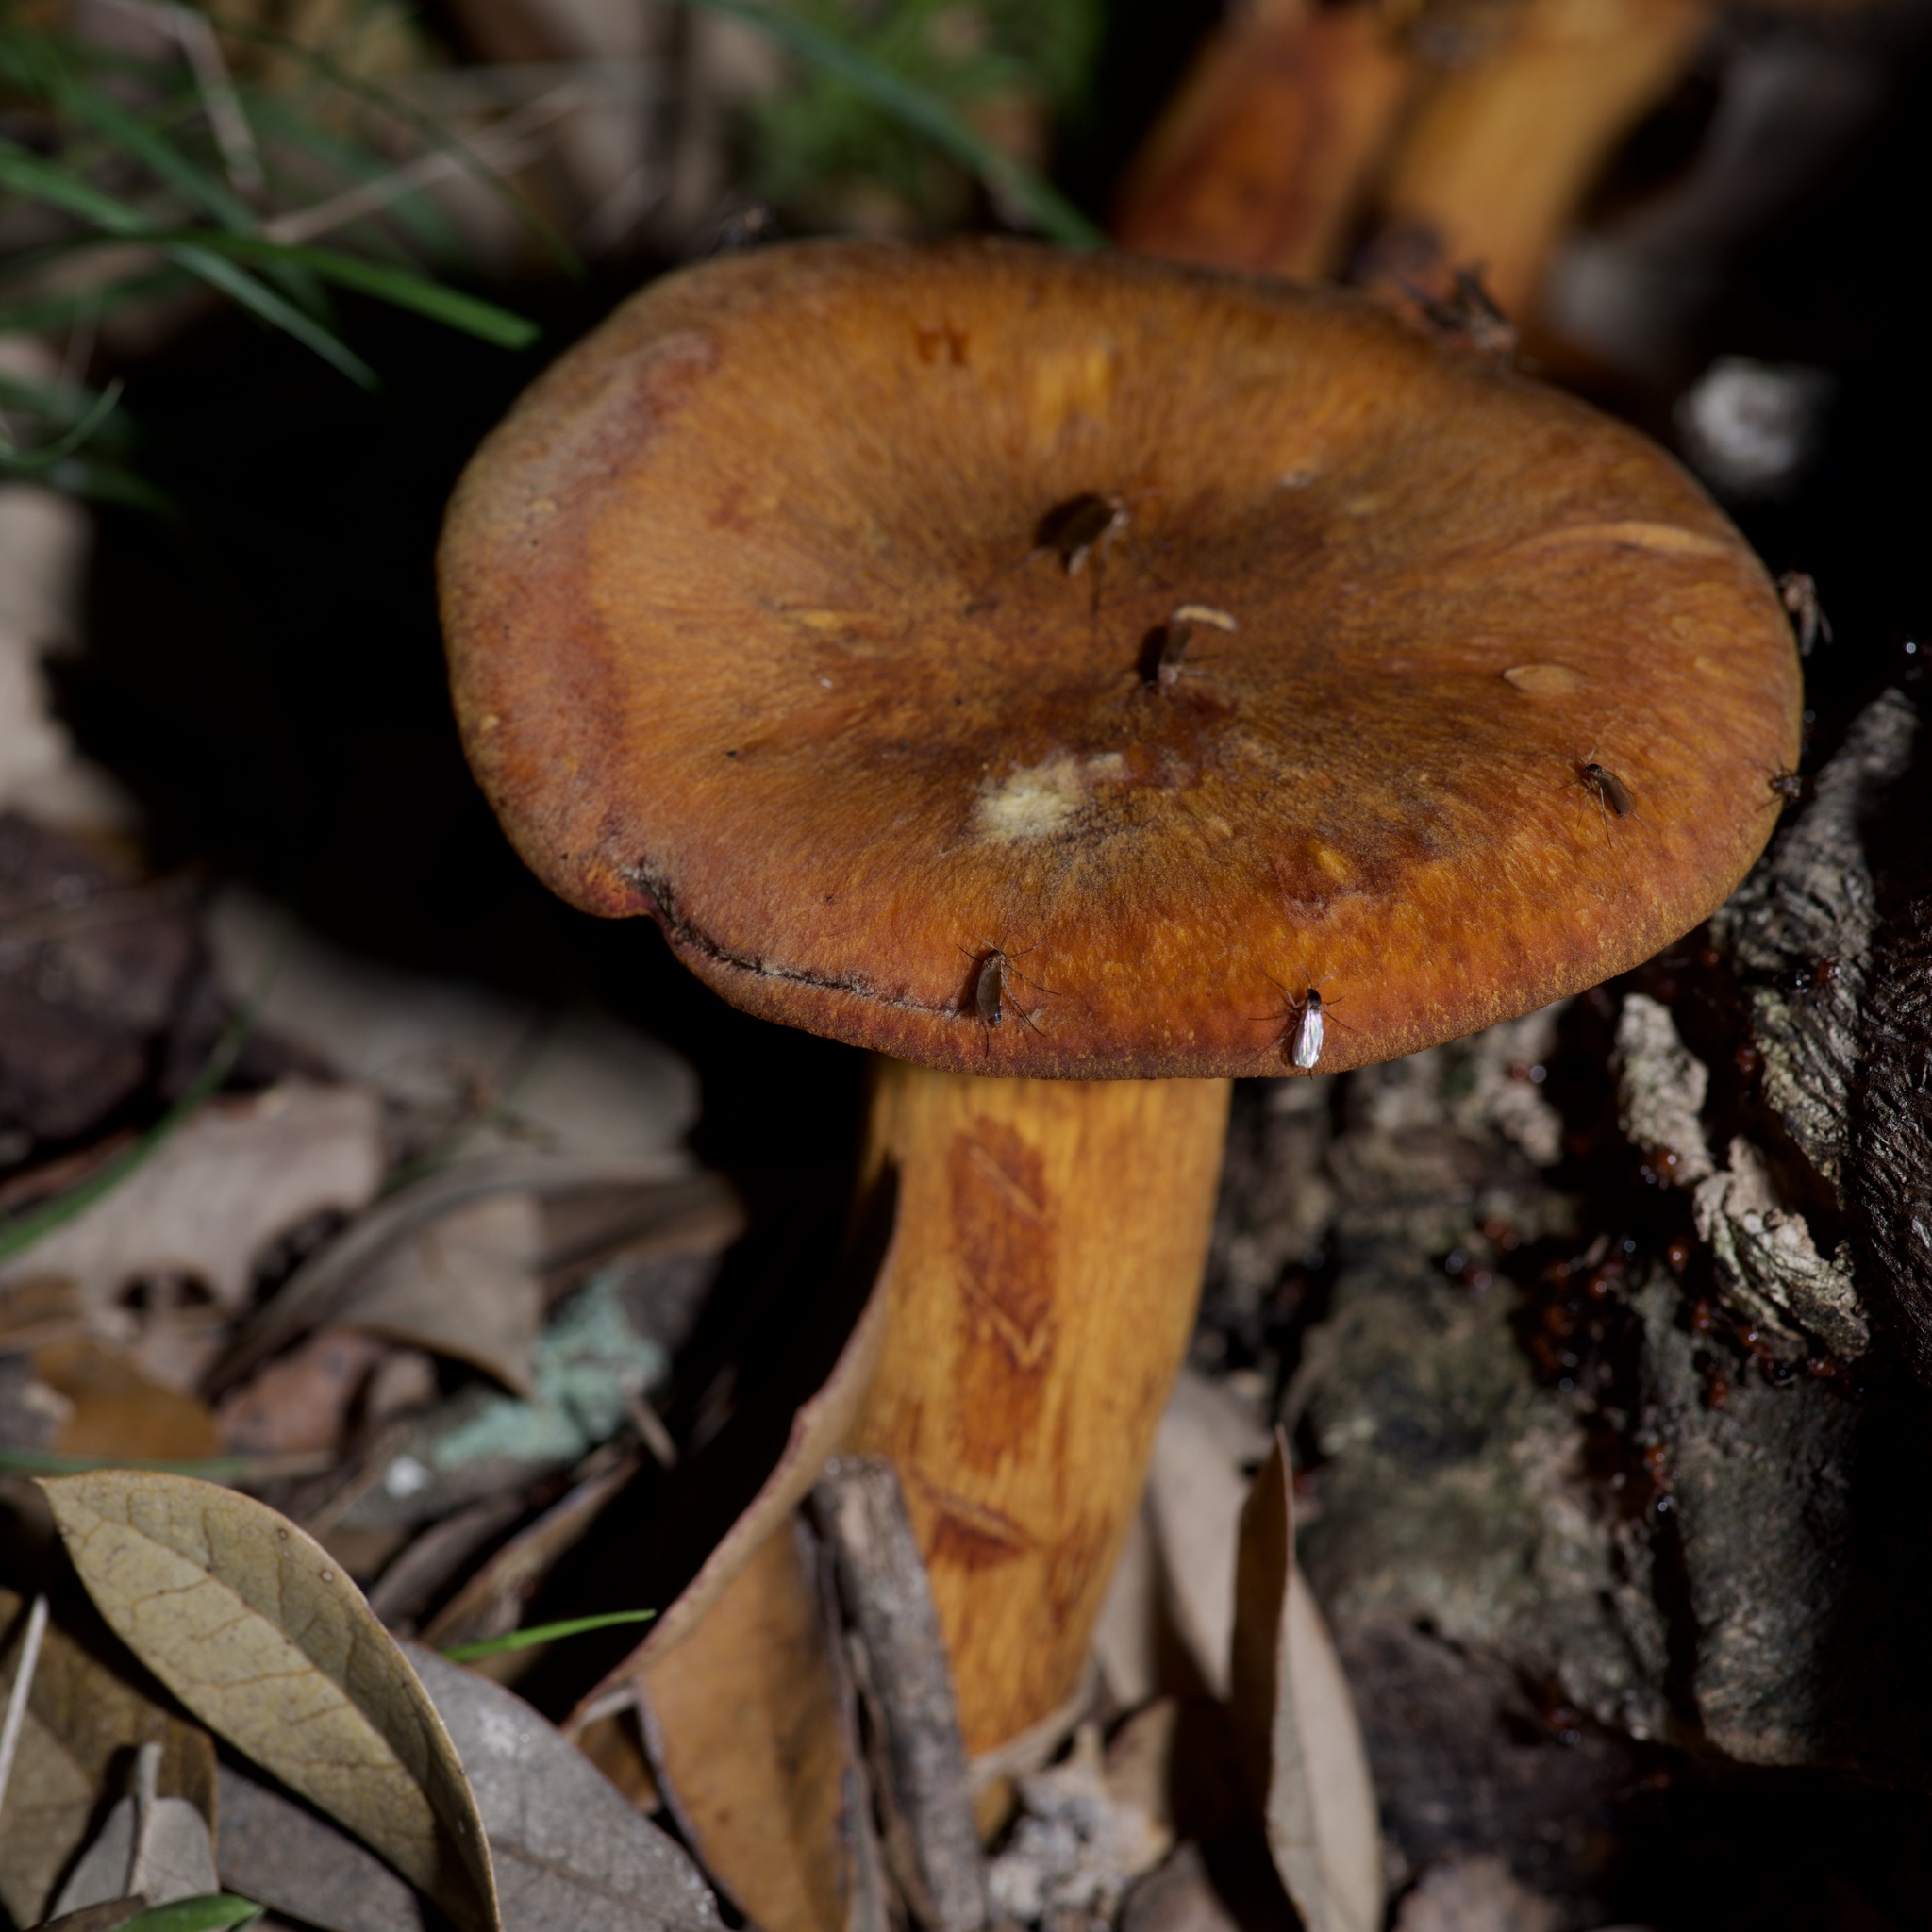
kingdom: Fungi
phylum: Basidiomycota
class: Agaricomycetes
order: Agaricales
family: Omphalotaceae
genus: Omphalotus
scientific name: Omphalotus subilludens
